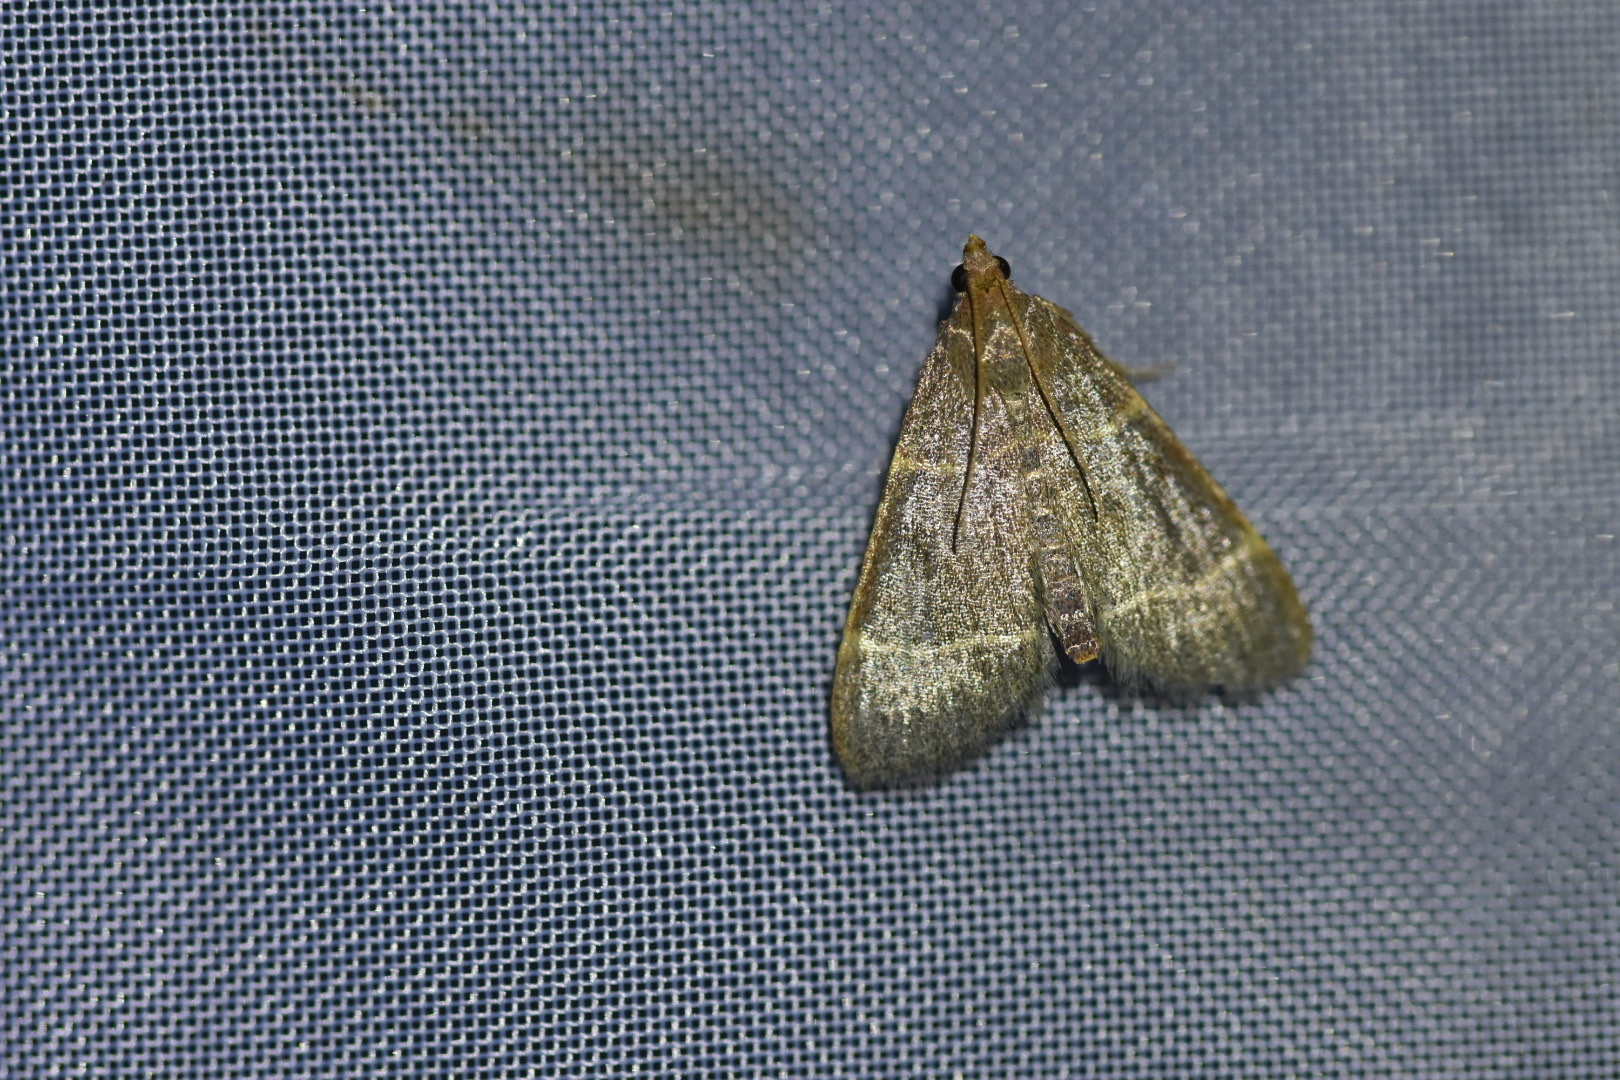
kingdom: Animalia
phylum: Arthropoda
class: Insecta
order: Lepidoptera
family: Pyralidae
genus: Hypsopygia
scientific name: Hypsopygia glaucinalis
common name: Double-striped tabby
